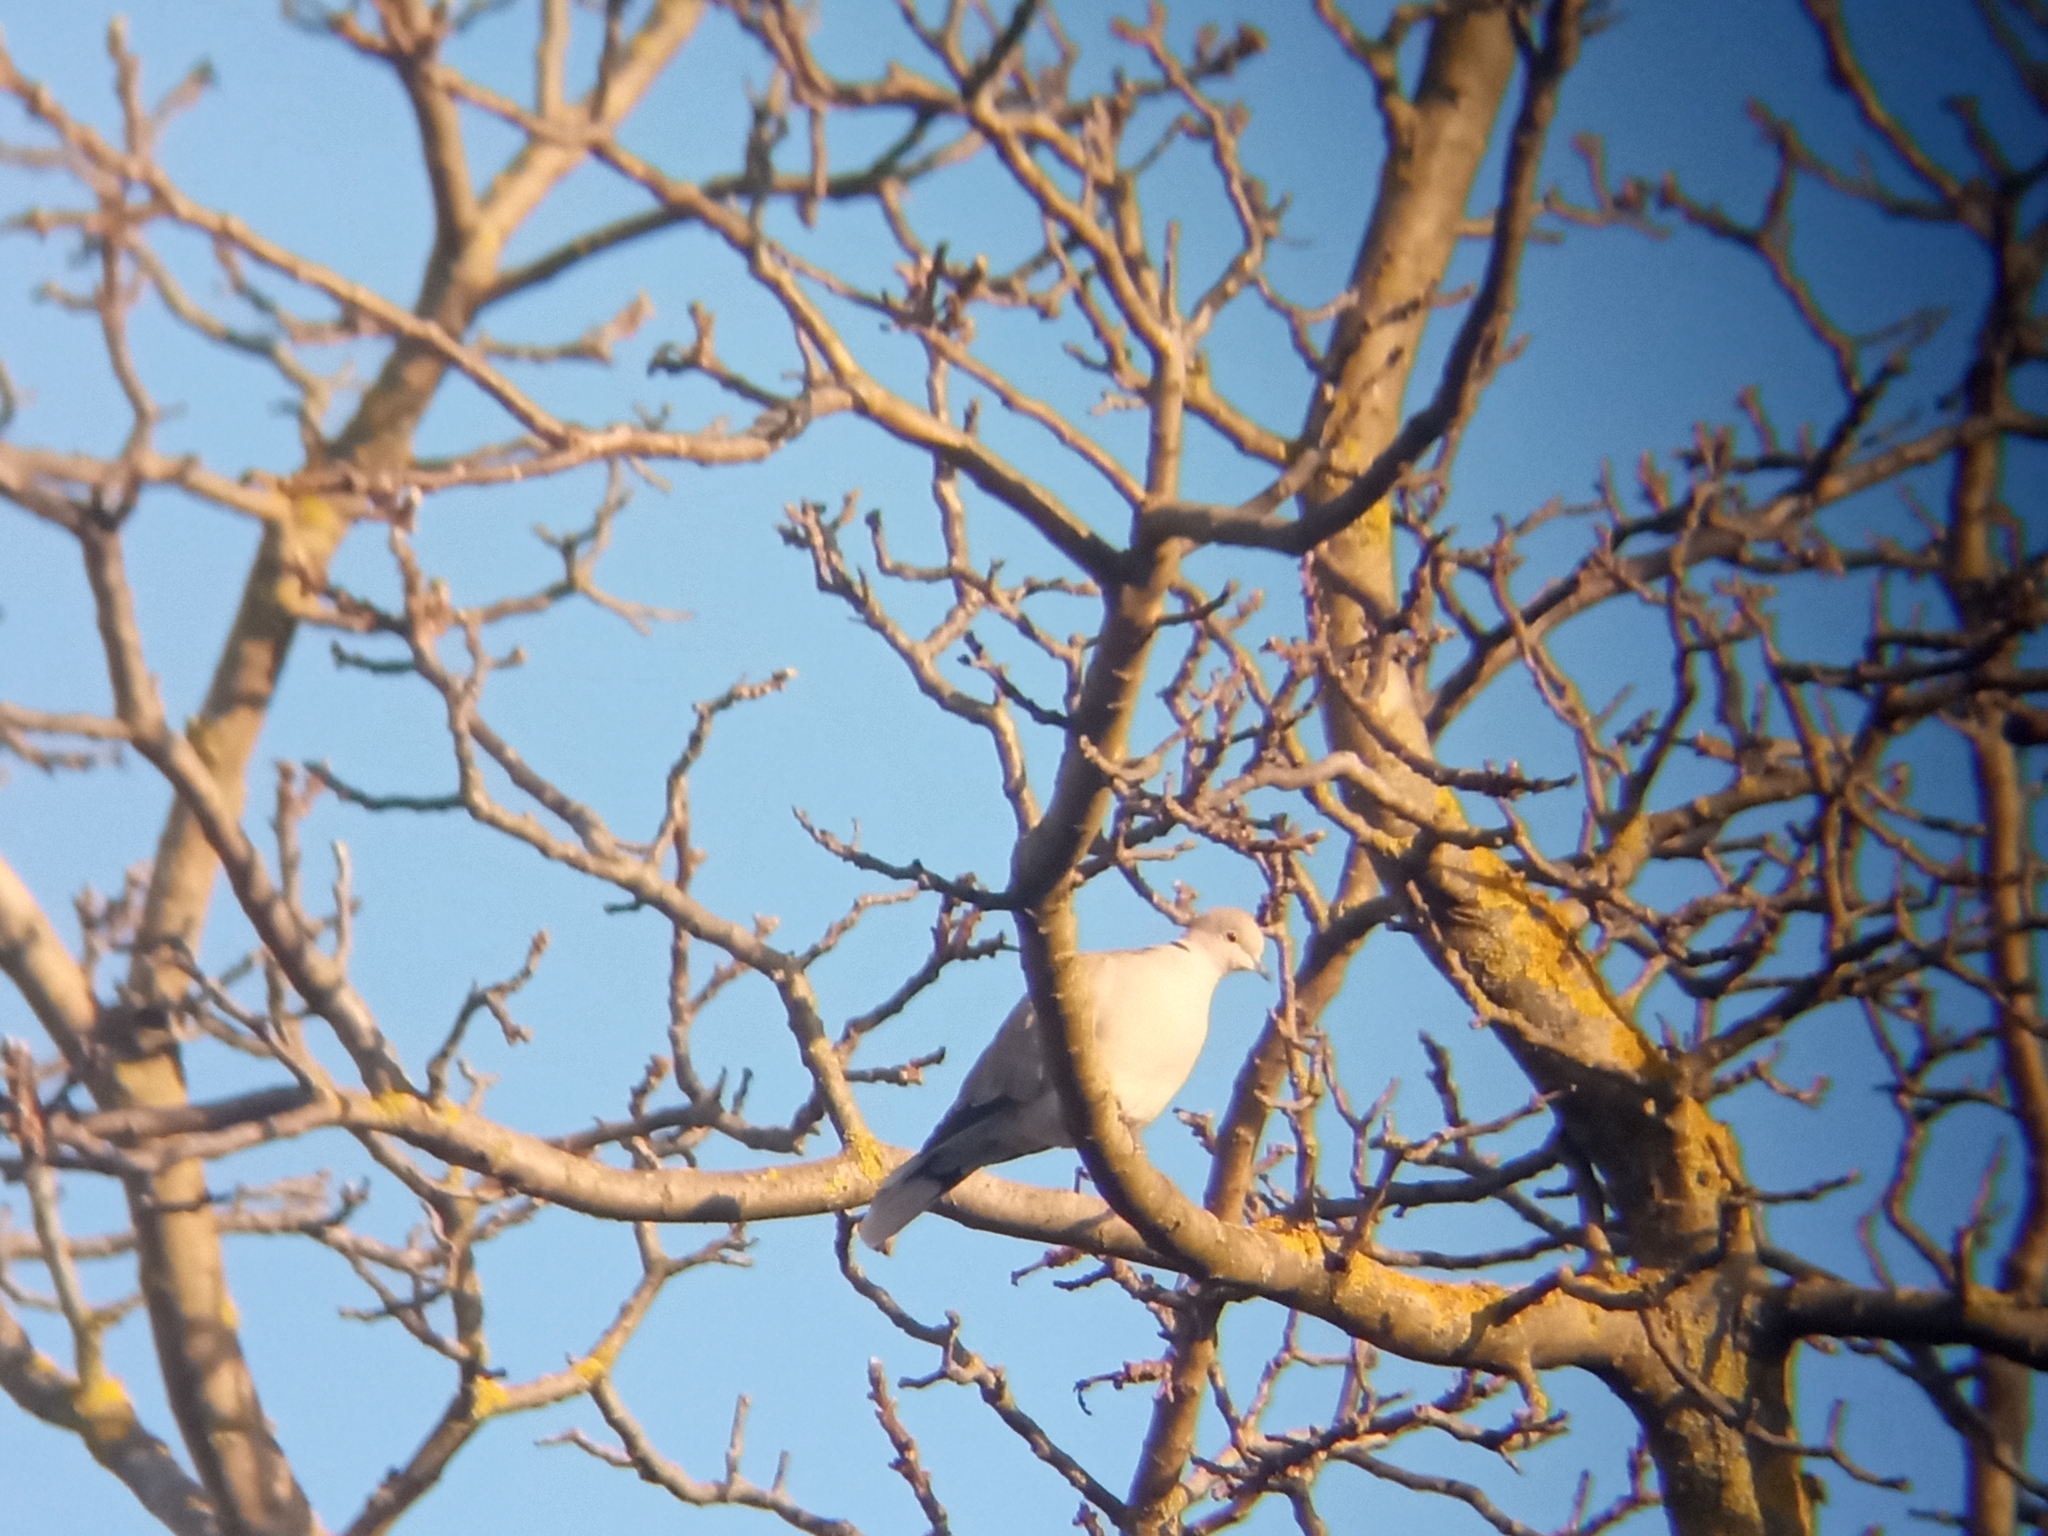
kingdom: Animalia
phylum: Chordata
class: Aves
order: Columbiformes
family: Columbidae
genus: Streptopelia
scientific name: Streptopelia decaocto
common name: Eurasian collared dove
